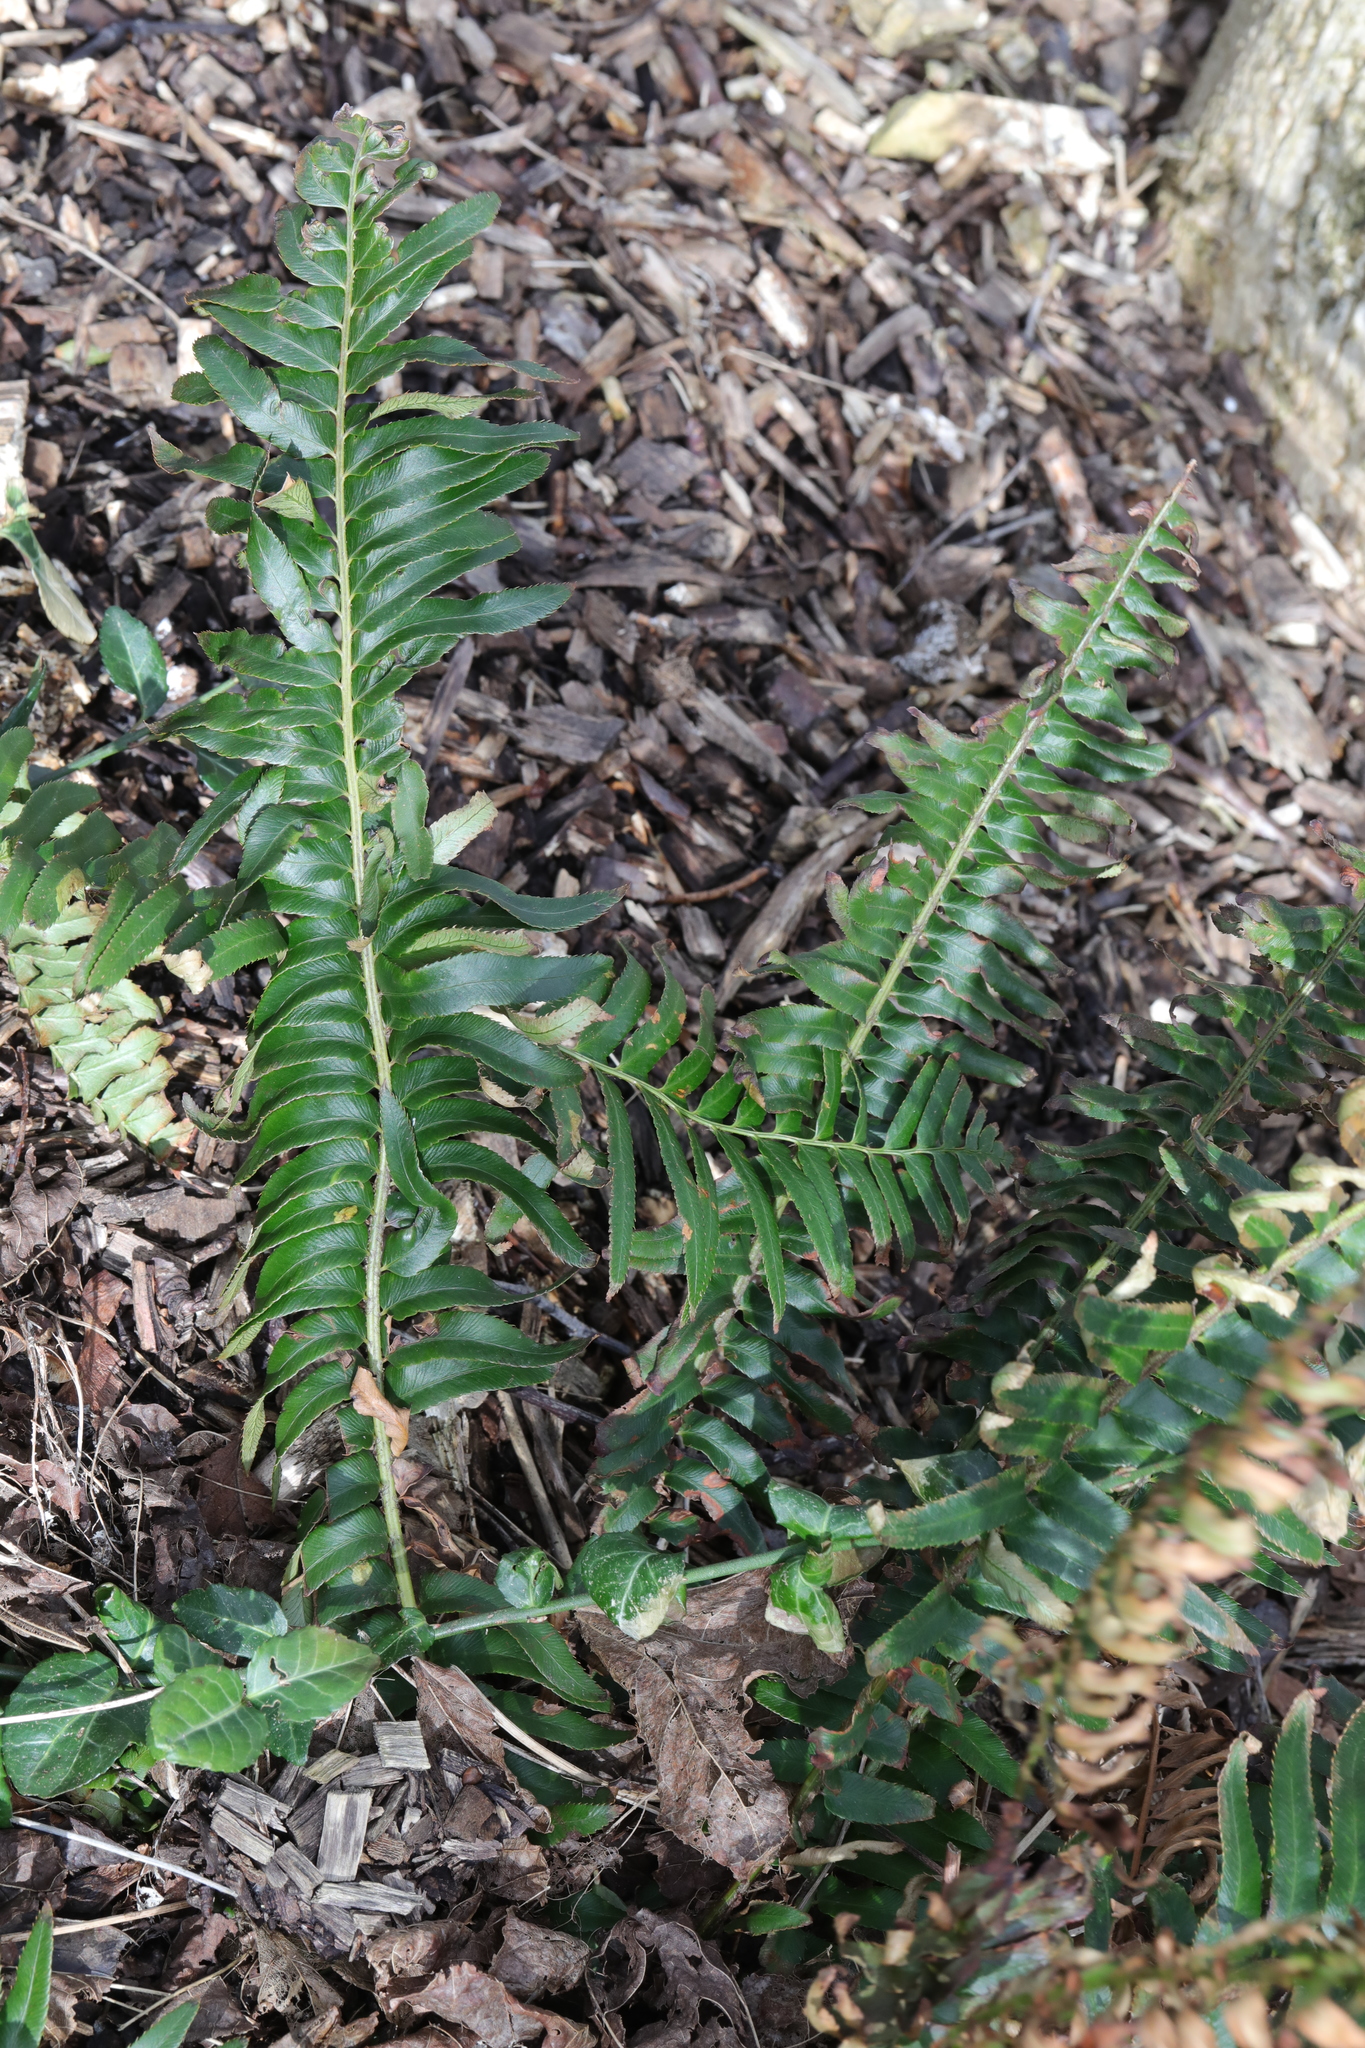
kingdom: Plantae
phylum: Tracheophyta
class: Polypodiopsida
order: Polypodiales
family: Dryopteridaceae
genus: Polystichum
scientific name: Polystichum munitum
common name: Western sword-fern
